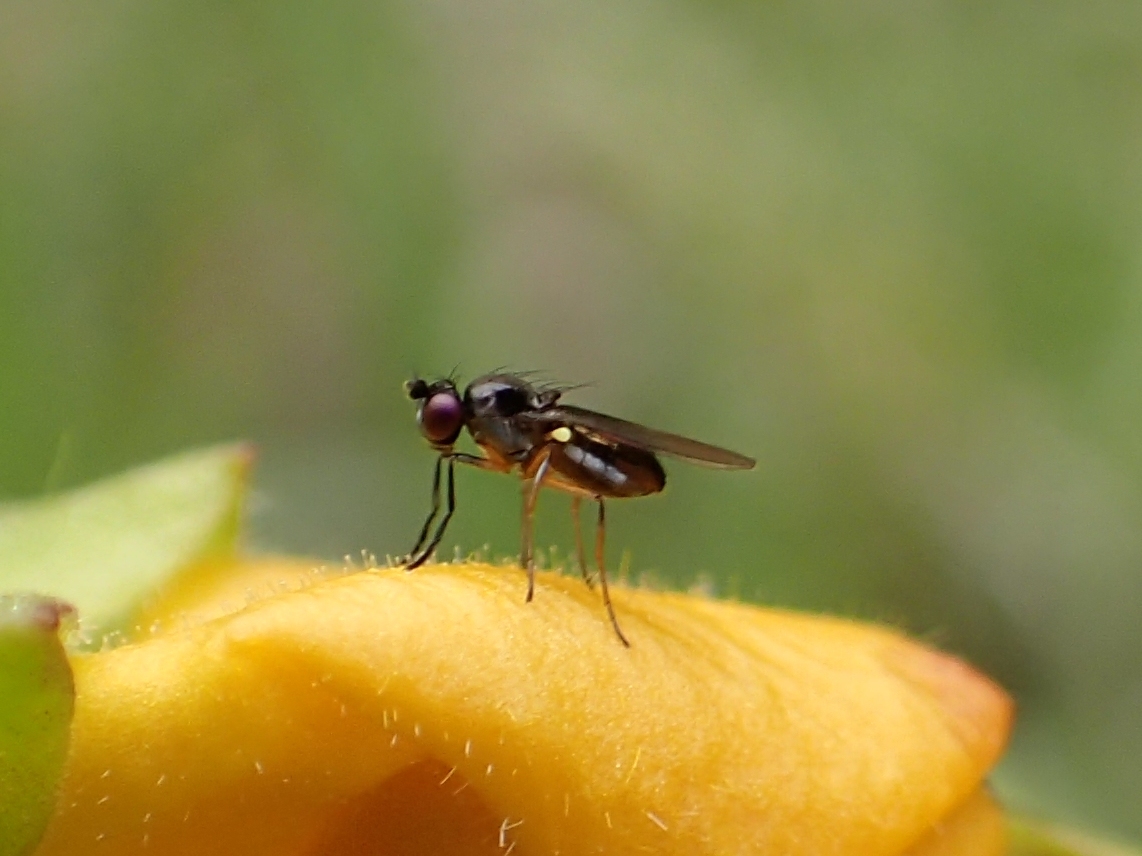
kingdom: Animalia
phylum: Arthropoda
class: Insecta
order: Diptera
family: Ephydridae
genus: Hydrellia
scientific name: Hydrellia tritici
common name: Shore fly
